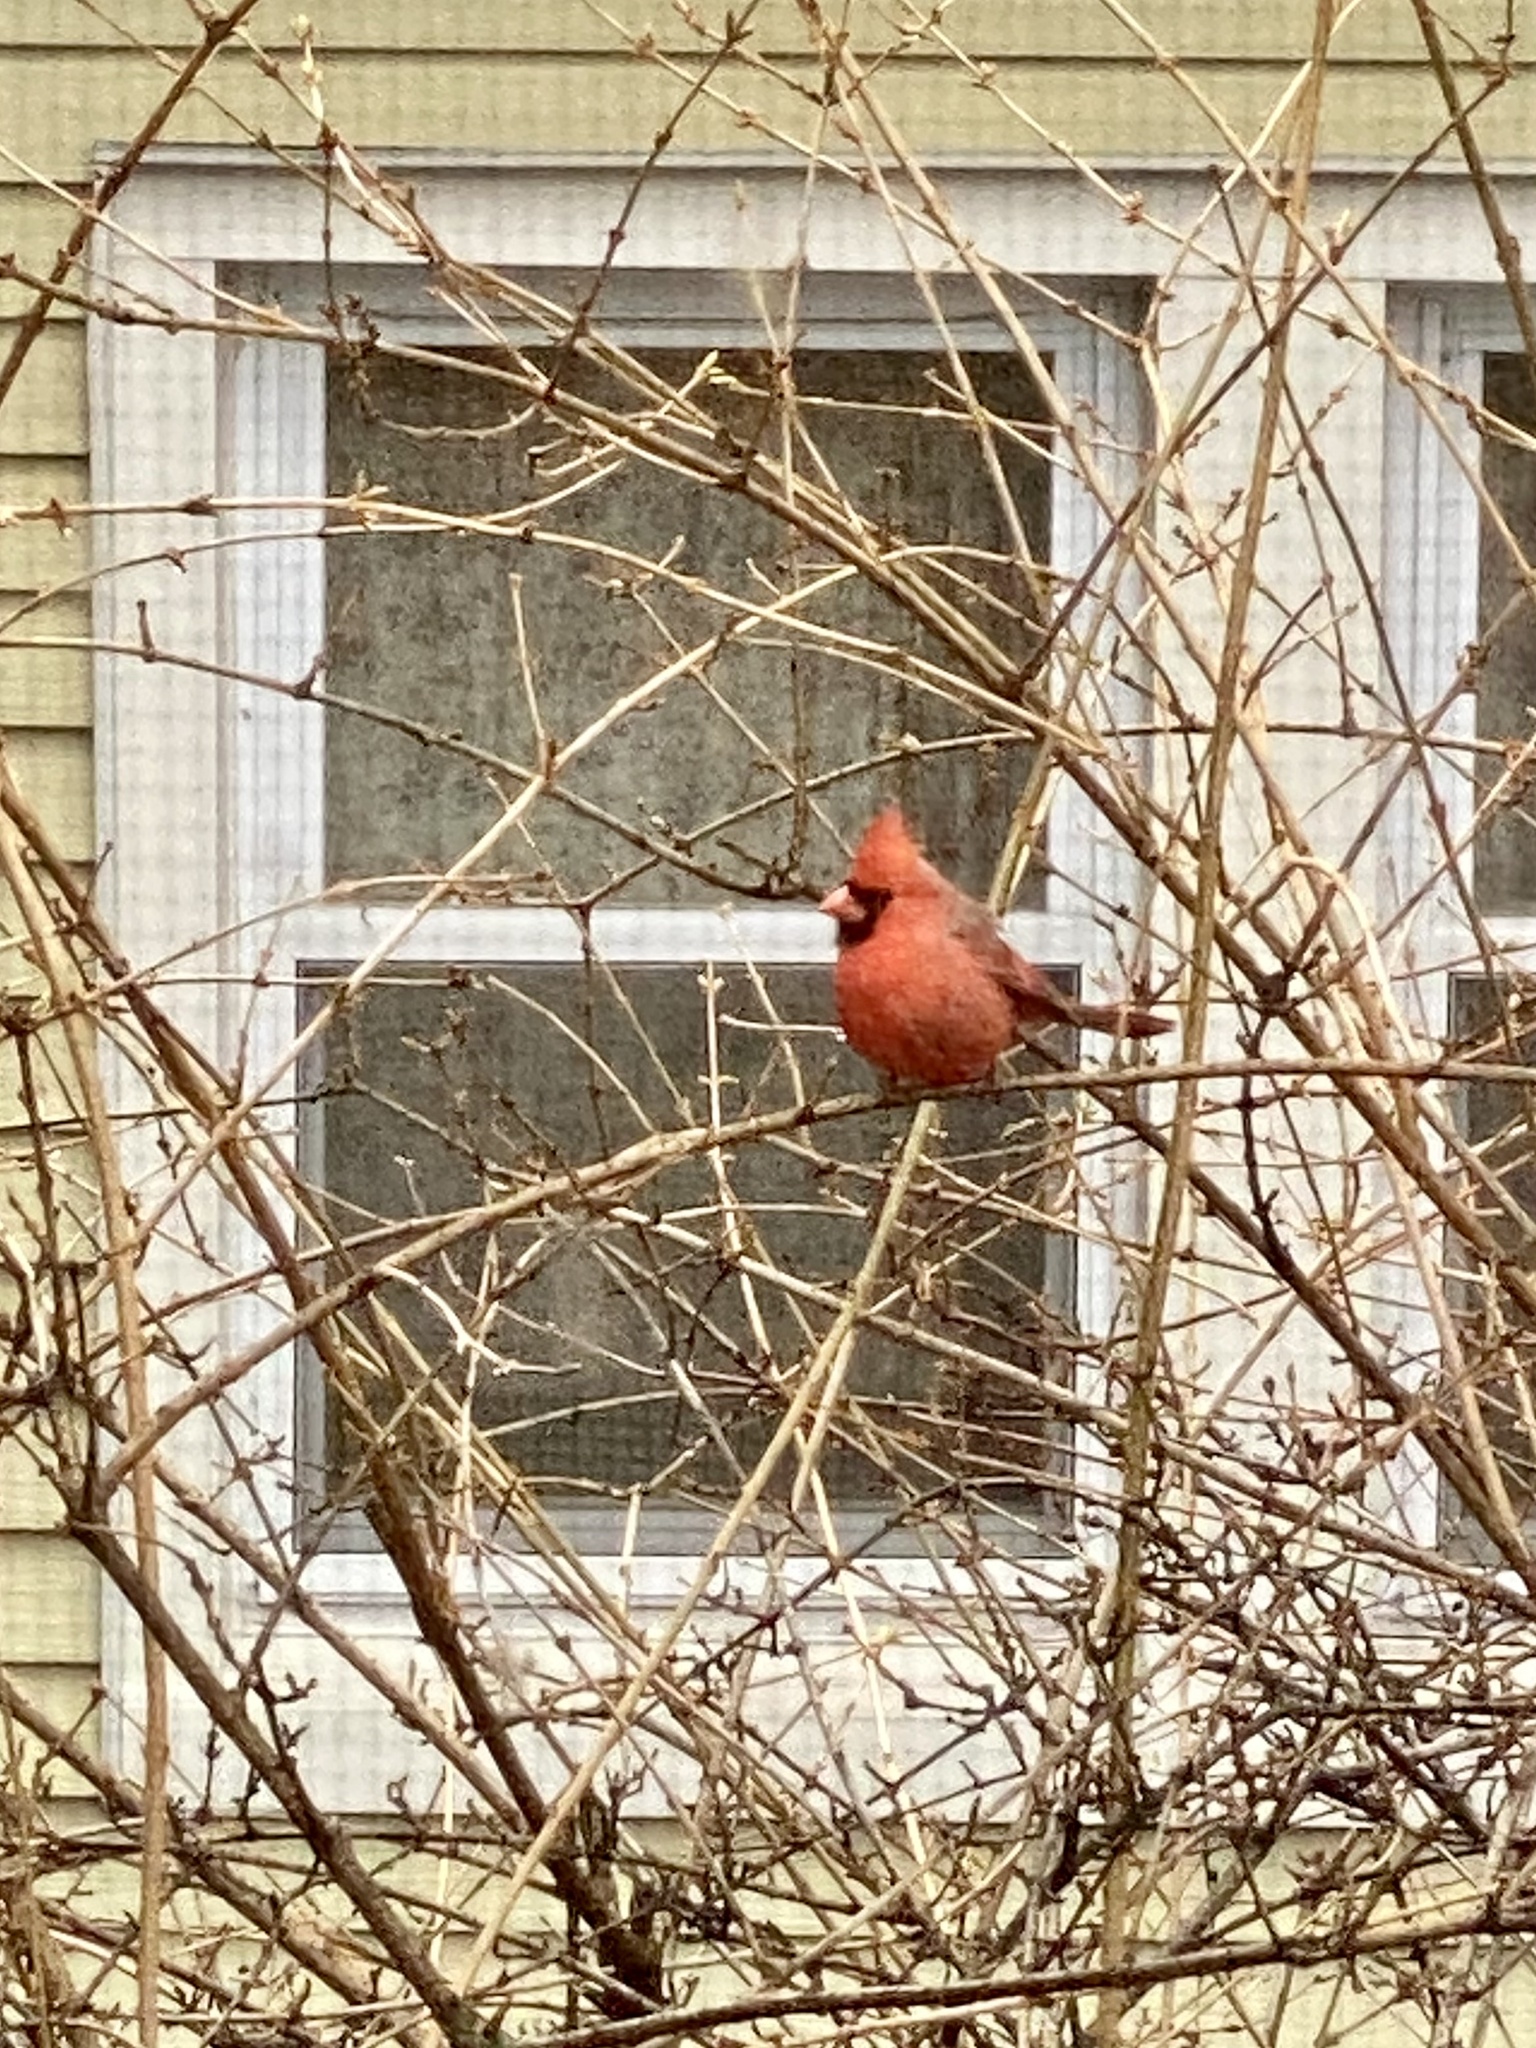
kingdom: Animalia
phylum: Chordata
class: Aves
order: Passeriformes
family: Cardinalidae
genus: Cardinalis
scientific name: Cardinalis cardinalis
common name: Northern cardinal
